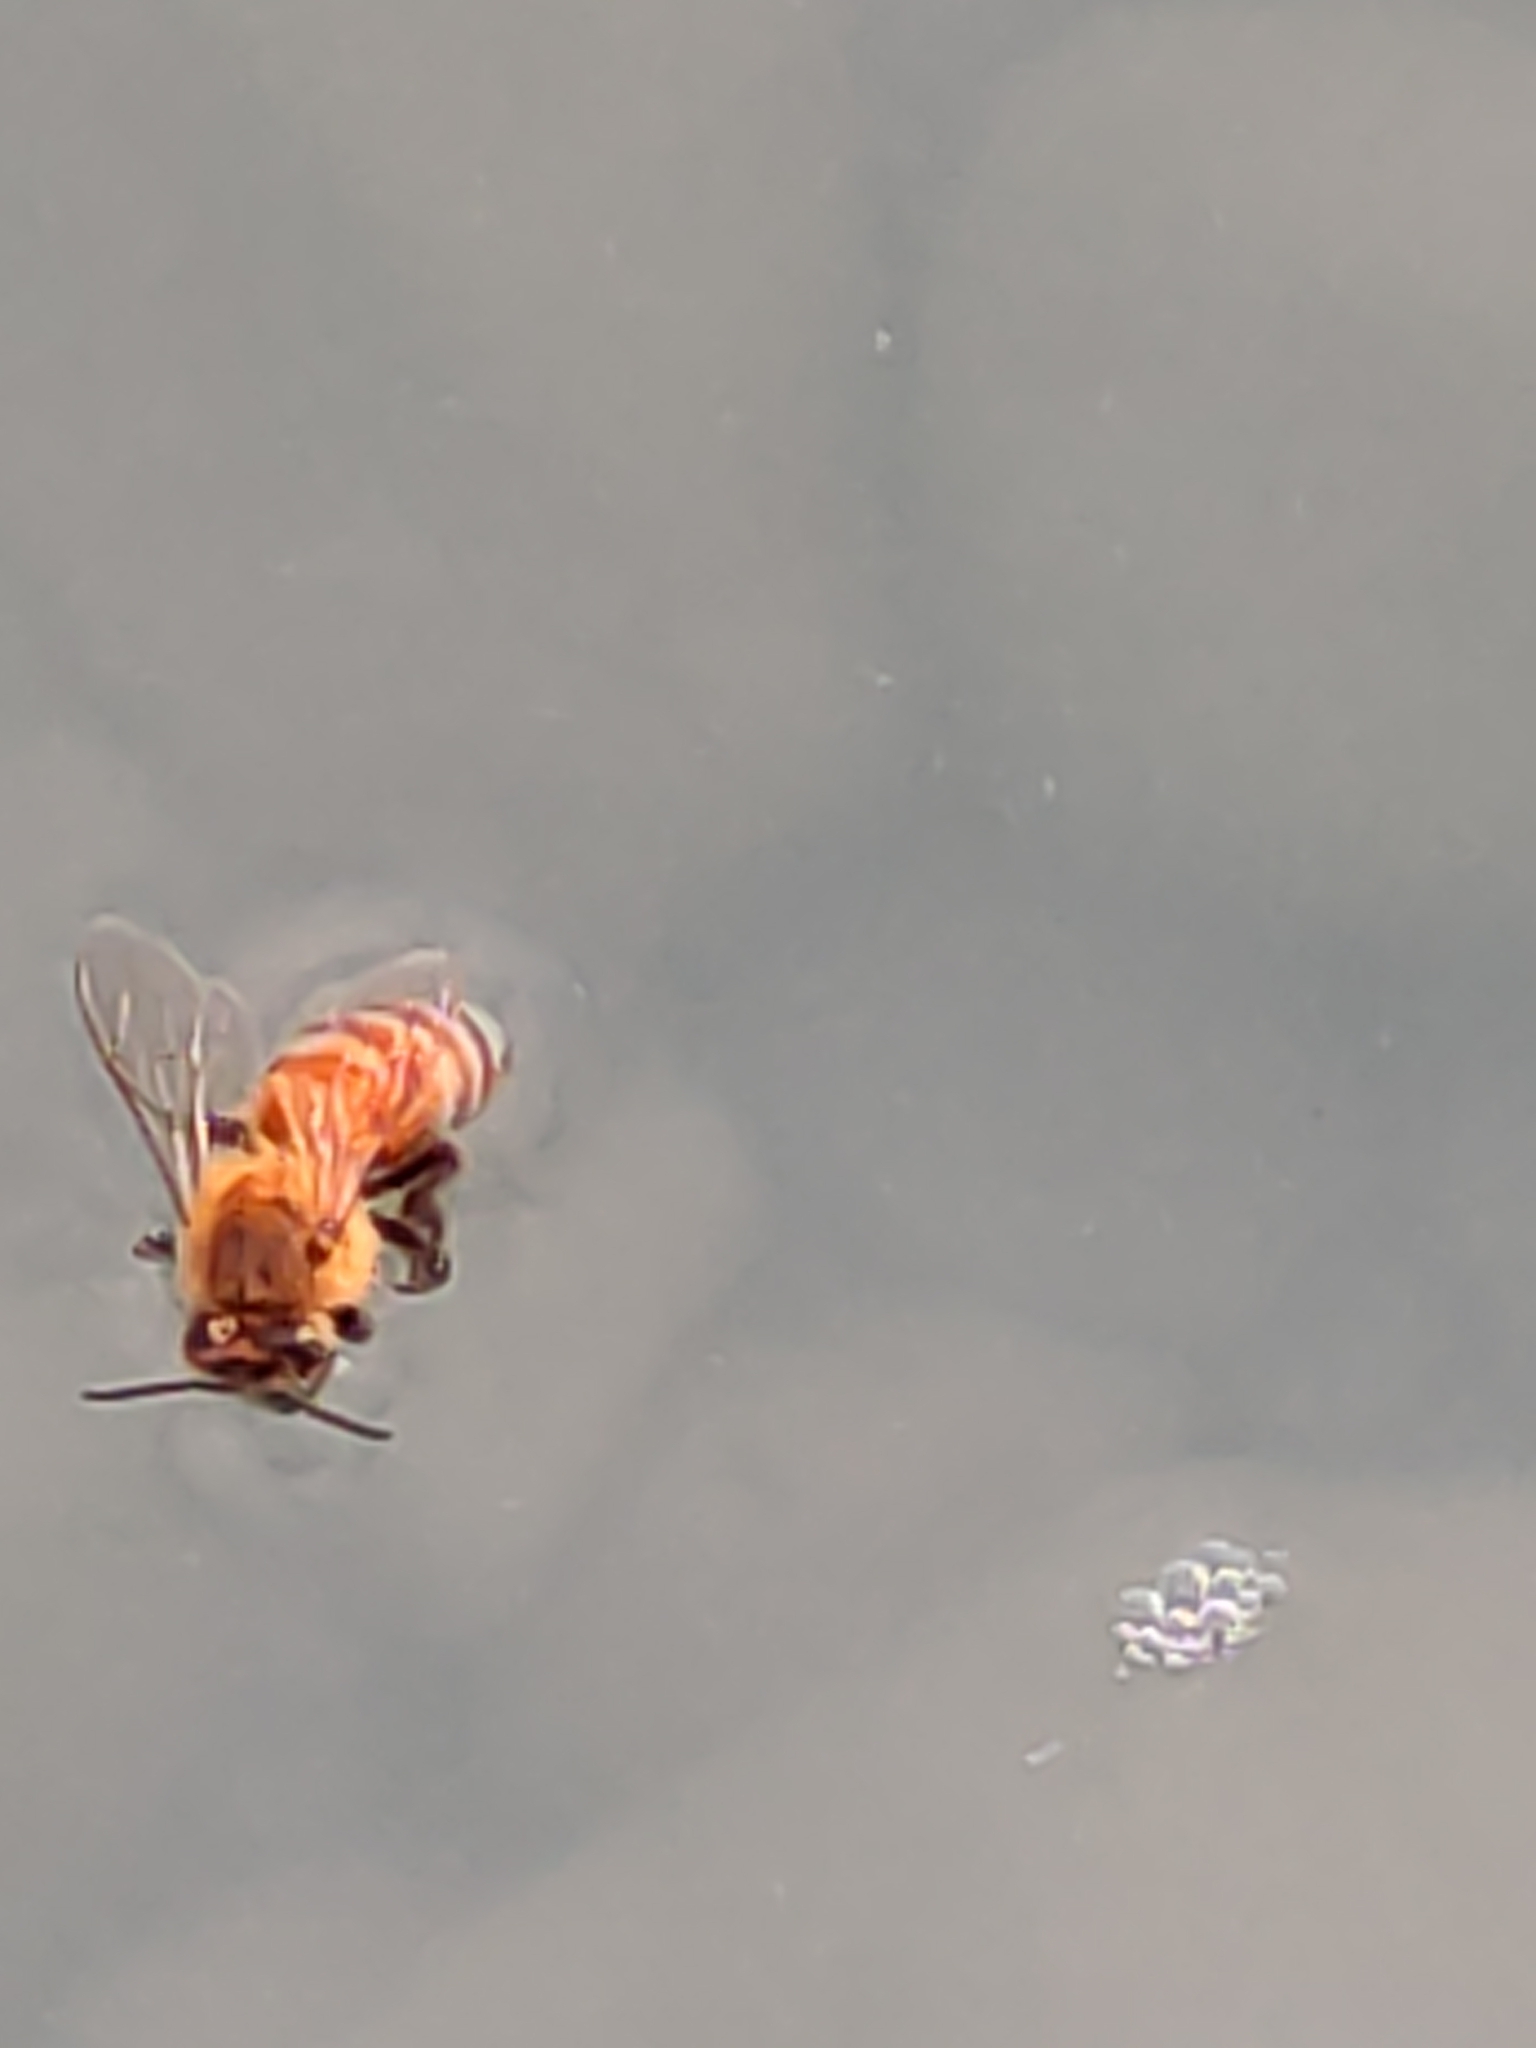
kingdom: Animalia
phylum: Arthropoda
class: Insecta
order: Hymenoptera
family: Apidae
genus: Apis
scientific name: Apis mellifera
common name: Honey bee
